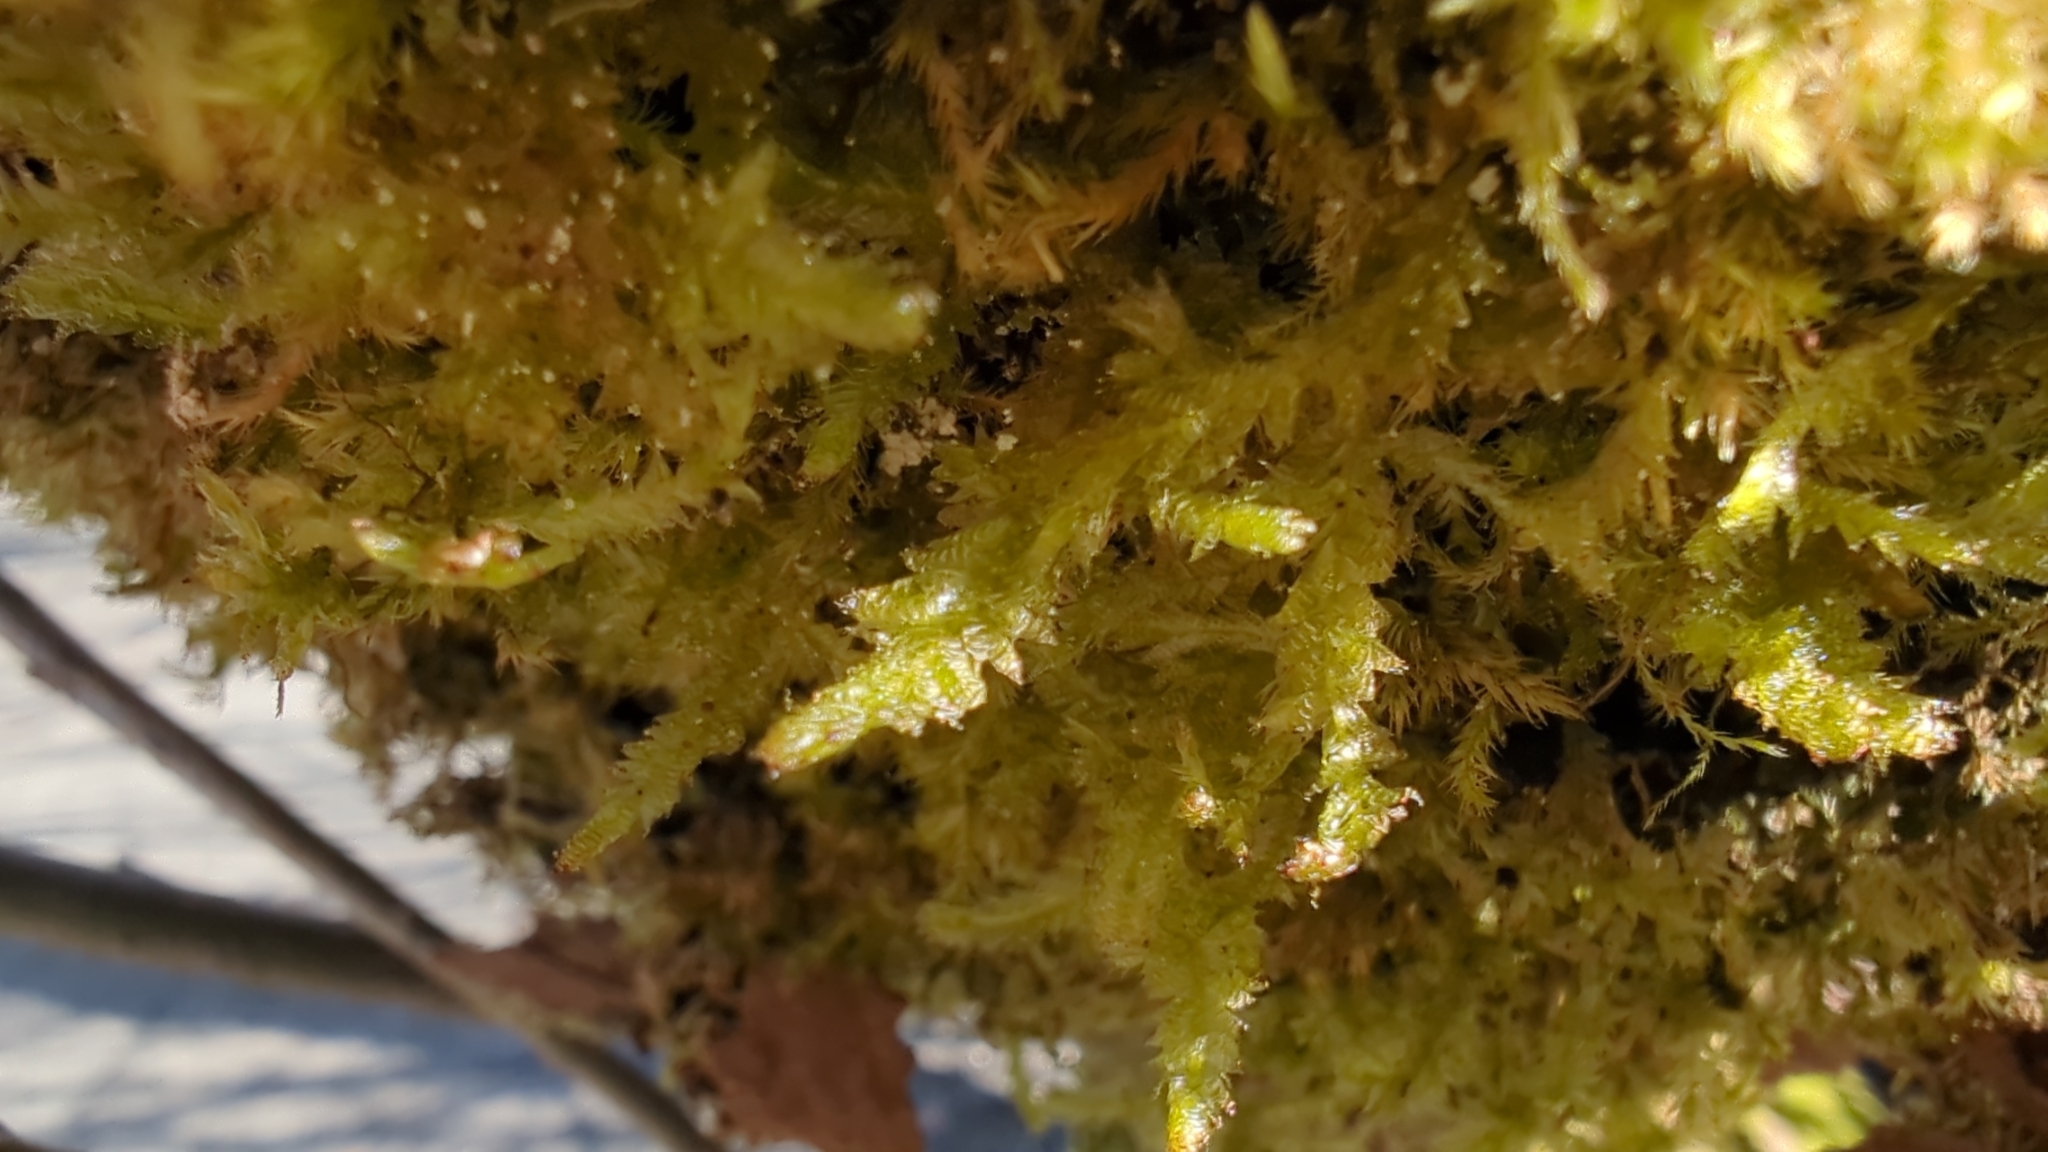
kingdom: Plantae
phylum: Bryophyta
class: Bryopsida
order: Hypnales
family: Neckeraceae
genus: Neckera
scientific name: Neckera douglasii
